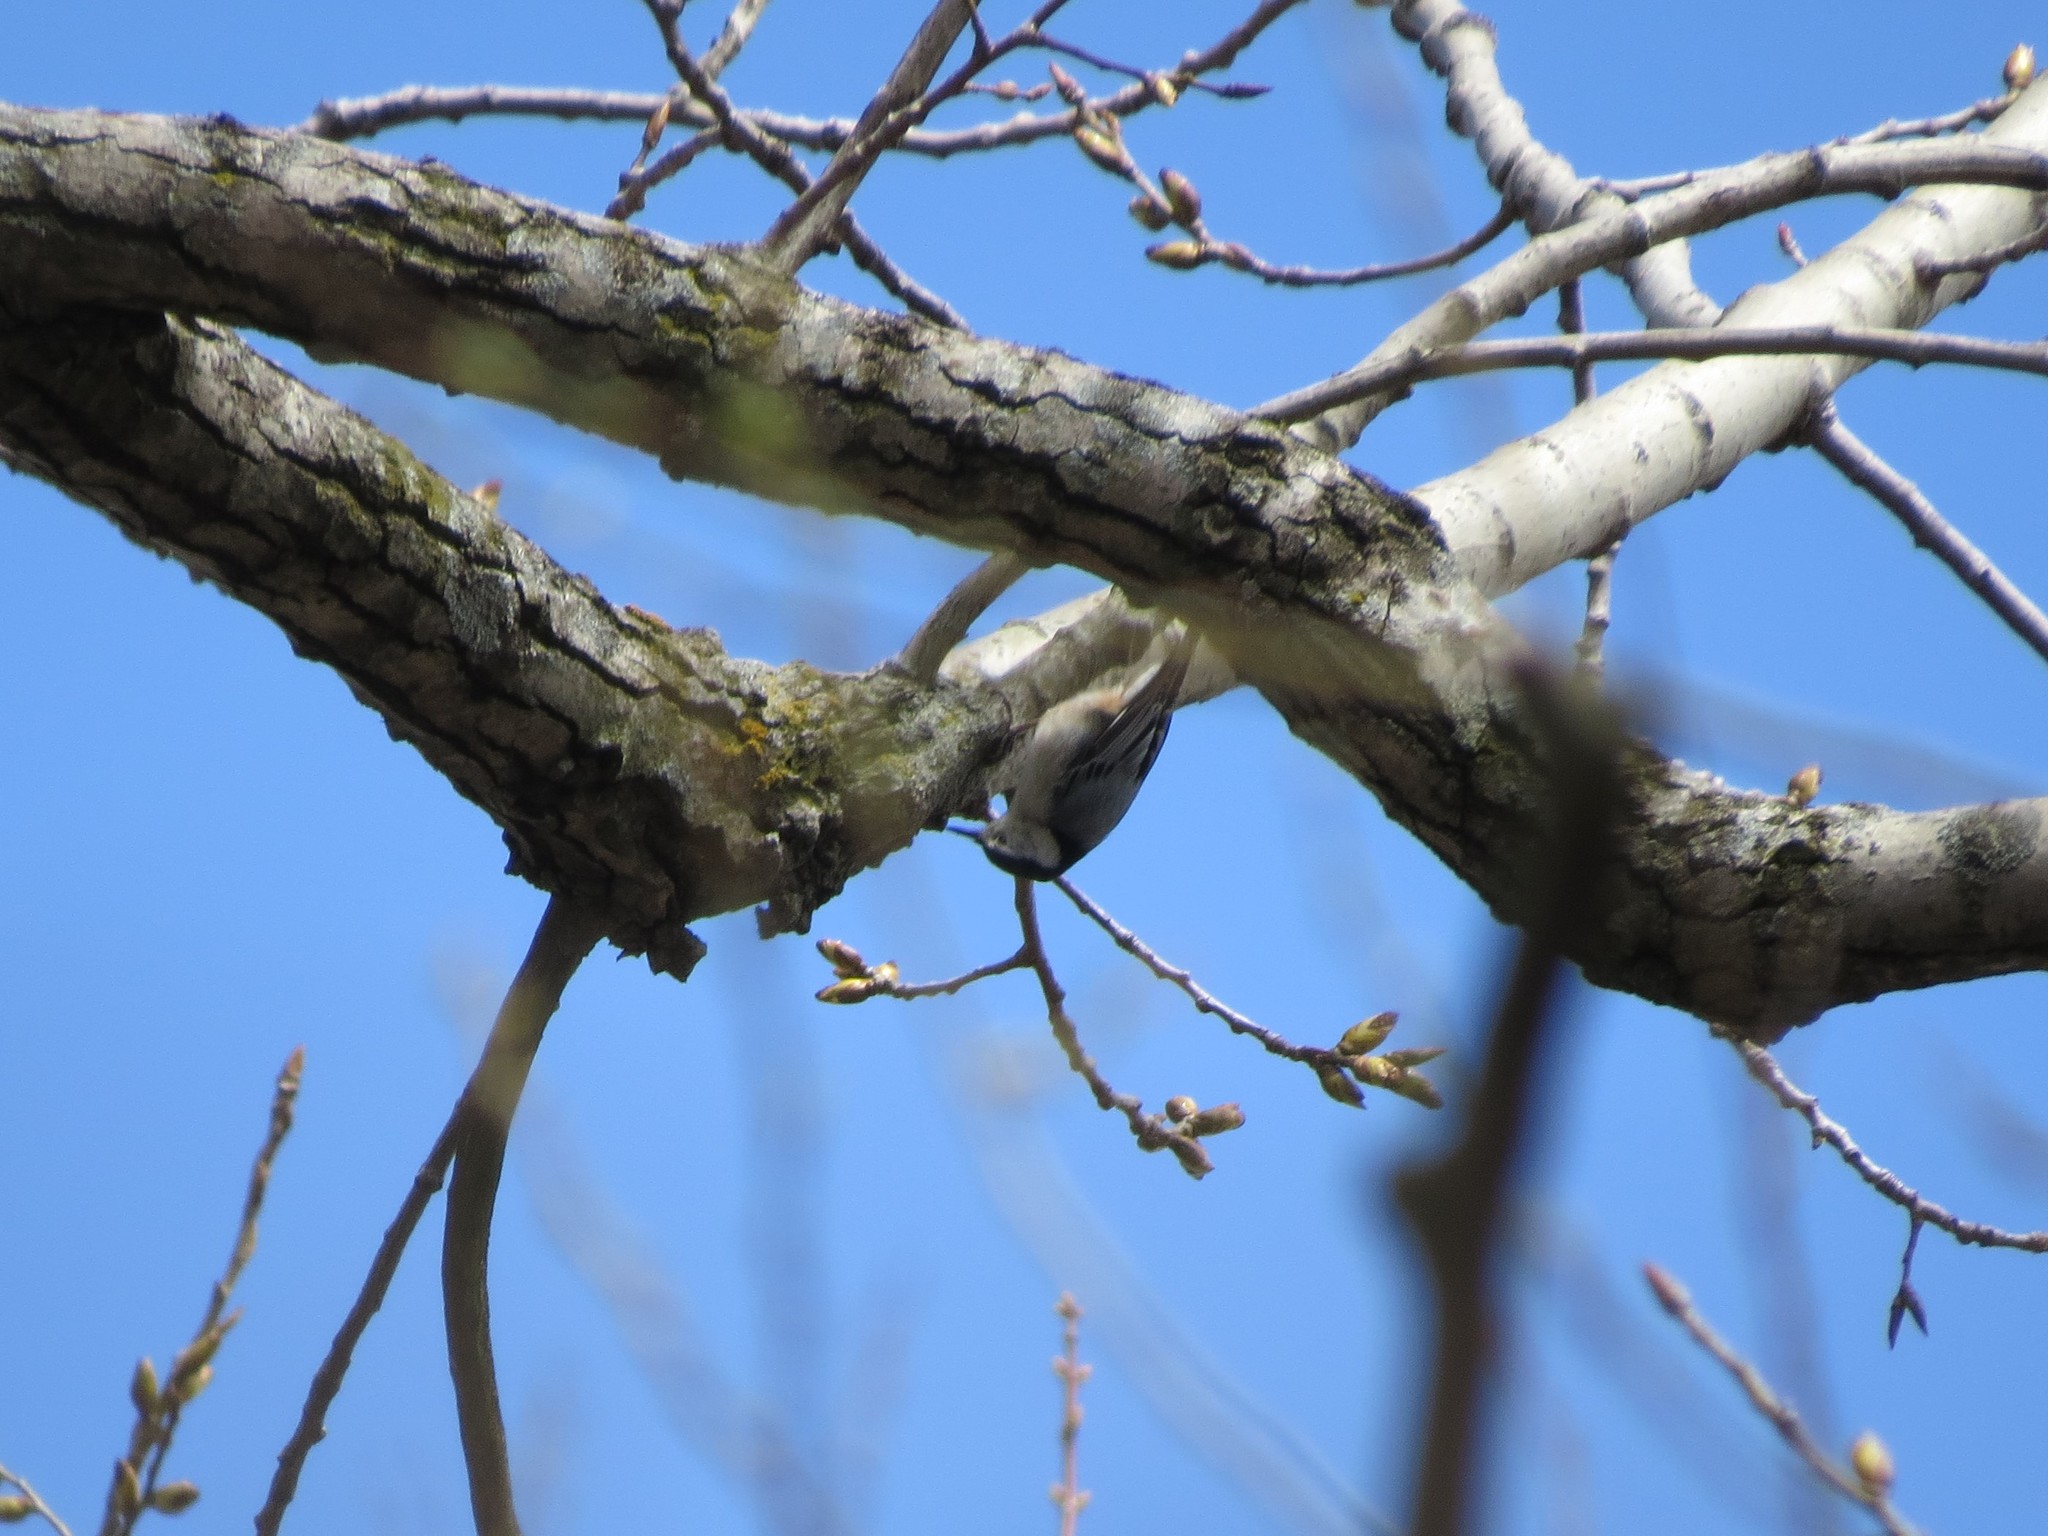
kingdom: Animalia
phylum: Chordata
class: Aves
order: Passeriformes
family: Sittidae
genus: Sitta
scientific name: Sitta carolinensis
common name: White-breasted nuthatch
